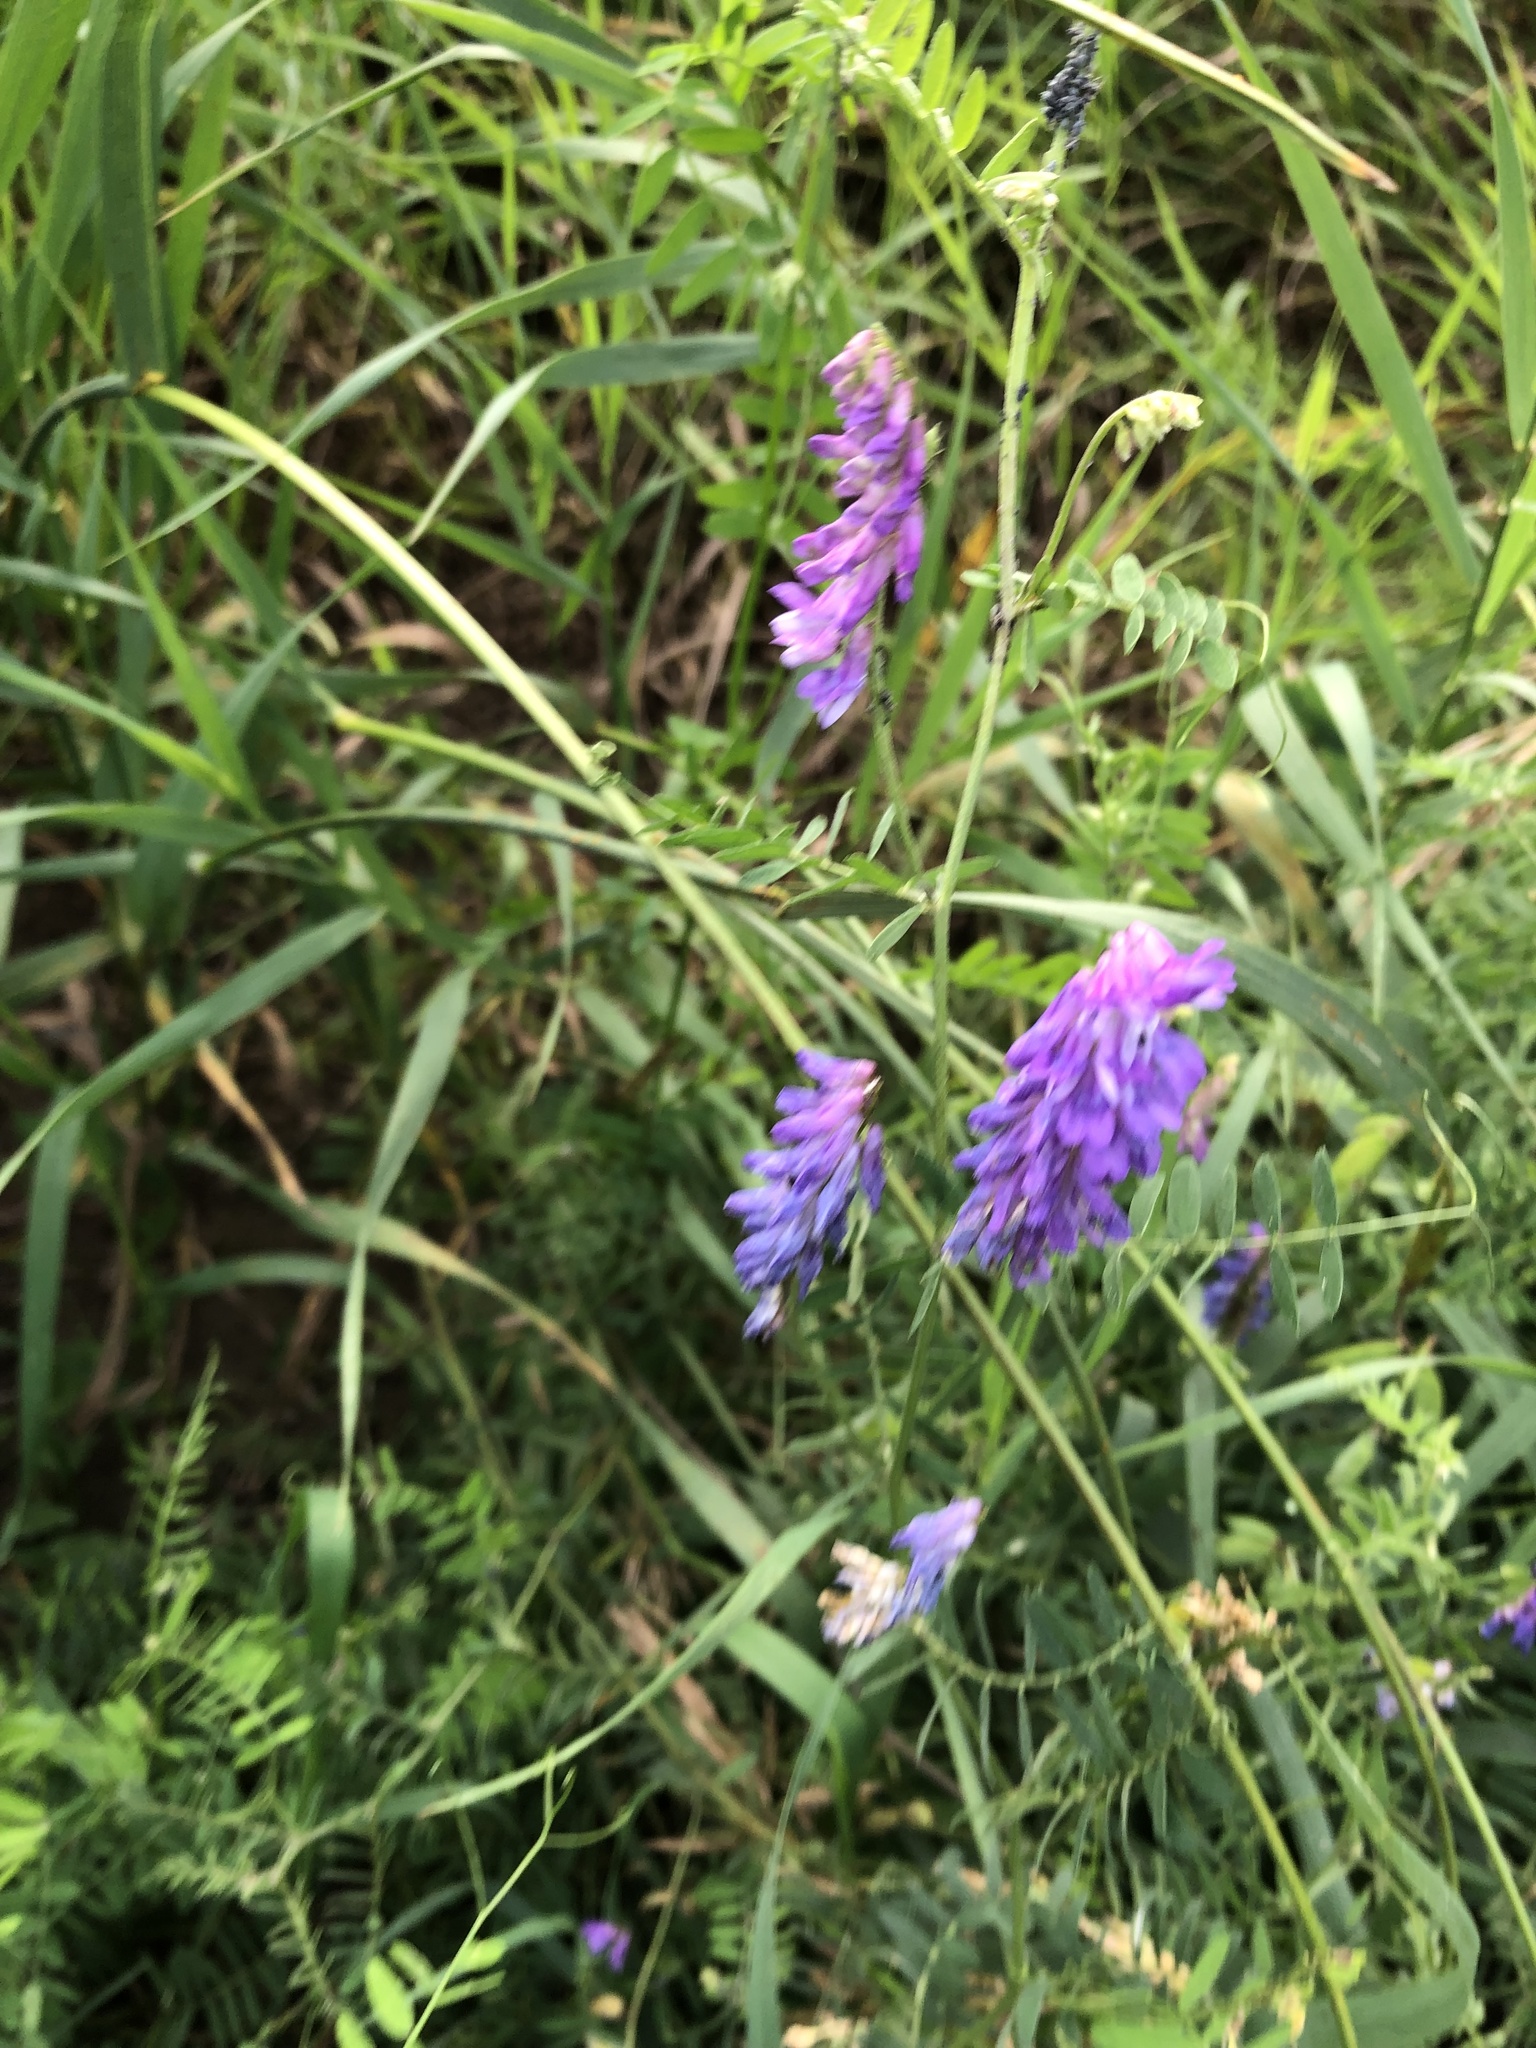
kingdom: Plantae
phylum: Tracheophyta
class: Magnoliopsida
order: Fabales
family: Fabaceae
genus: Vicia
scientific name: Vicia cracca
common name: Bird vetch
